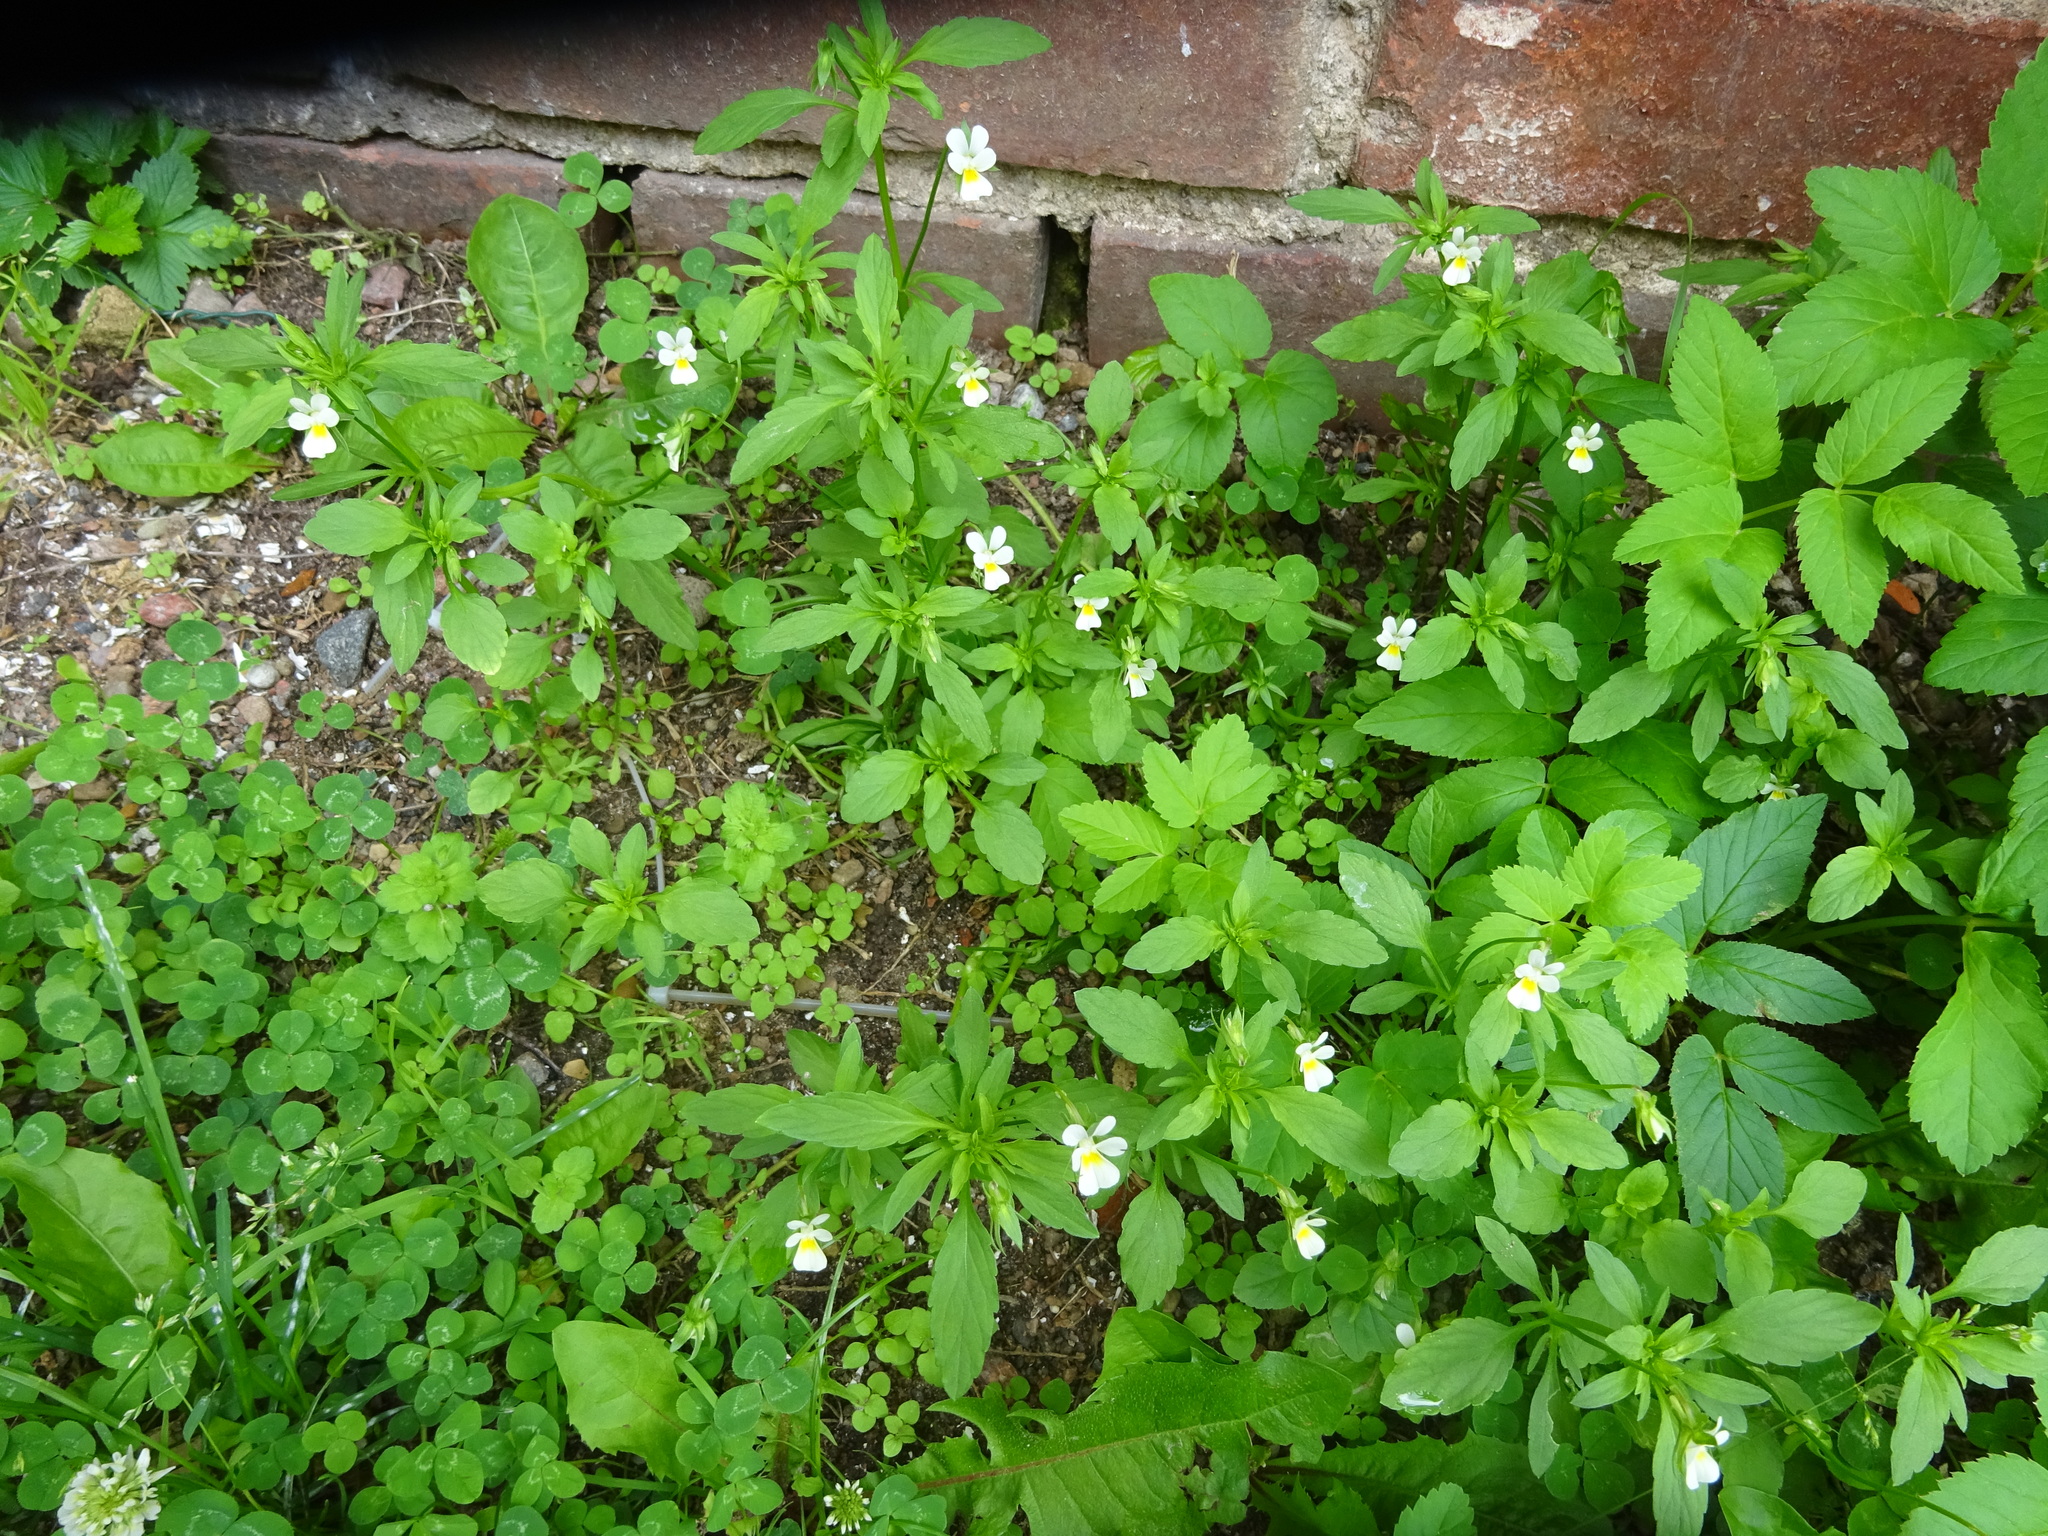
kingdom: Plantae
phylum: Tracheophyta
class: Magnoliopsida
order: Malpighiales
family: Violaceae
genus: Viola
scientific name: Viola arvensis
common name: Field pansy
